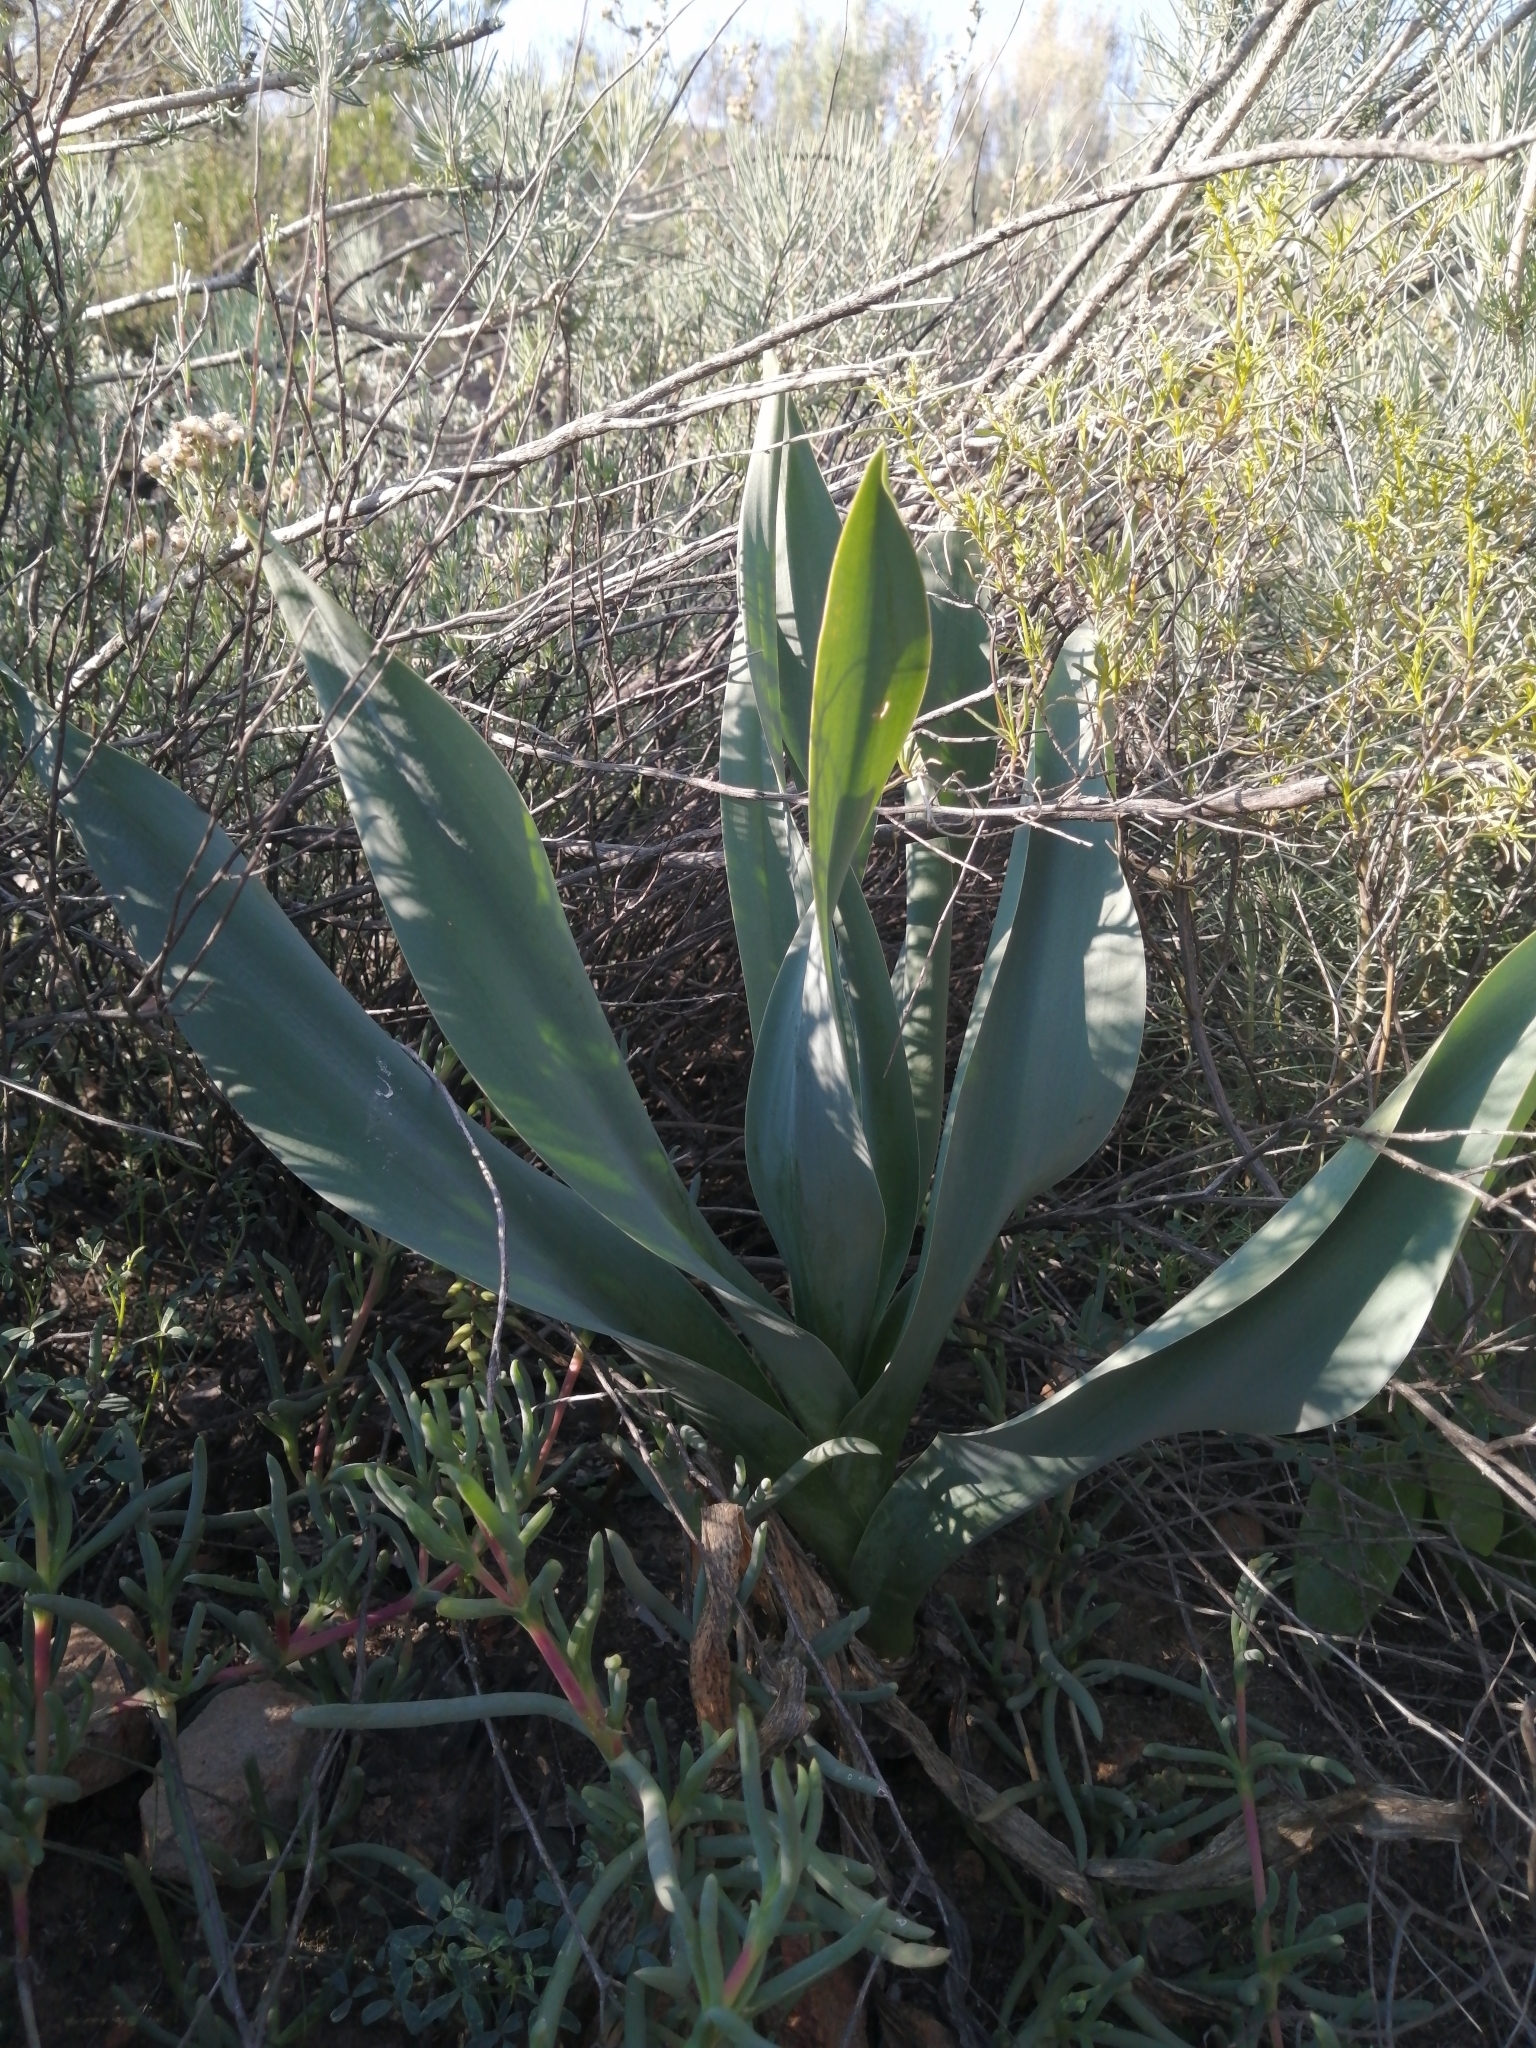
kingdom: Plantae
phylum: Tracheophyta
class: Liliopsida
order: Asparagales
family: Asparagaceae
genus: Drimia
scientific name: Drimia capensis
